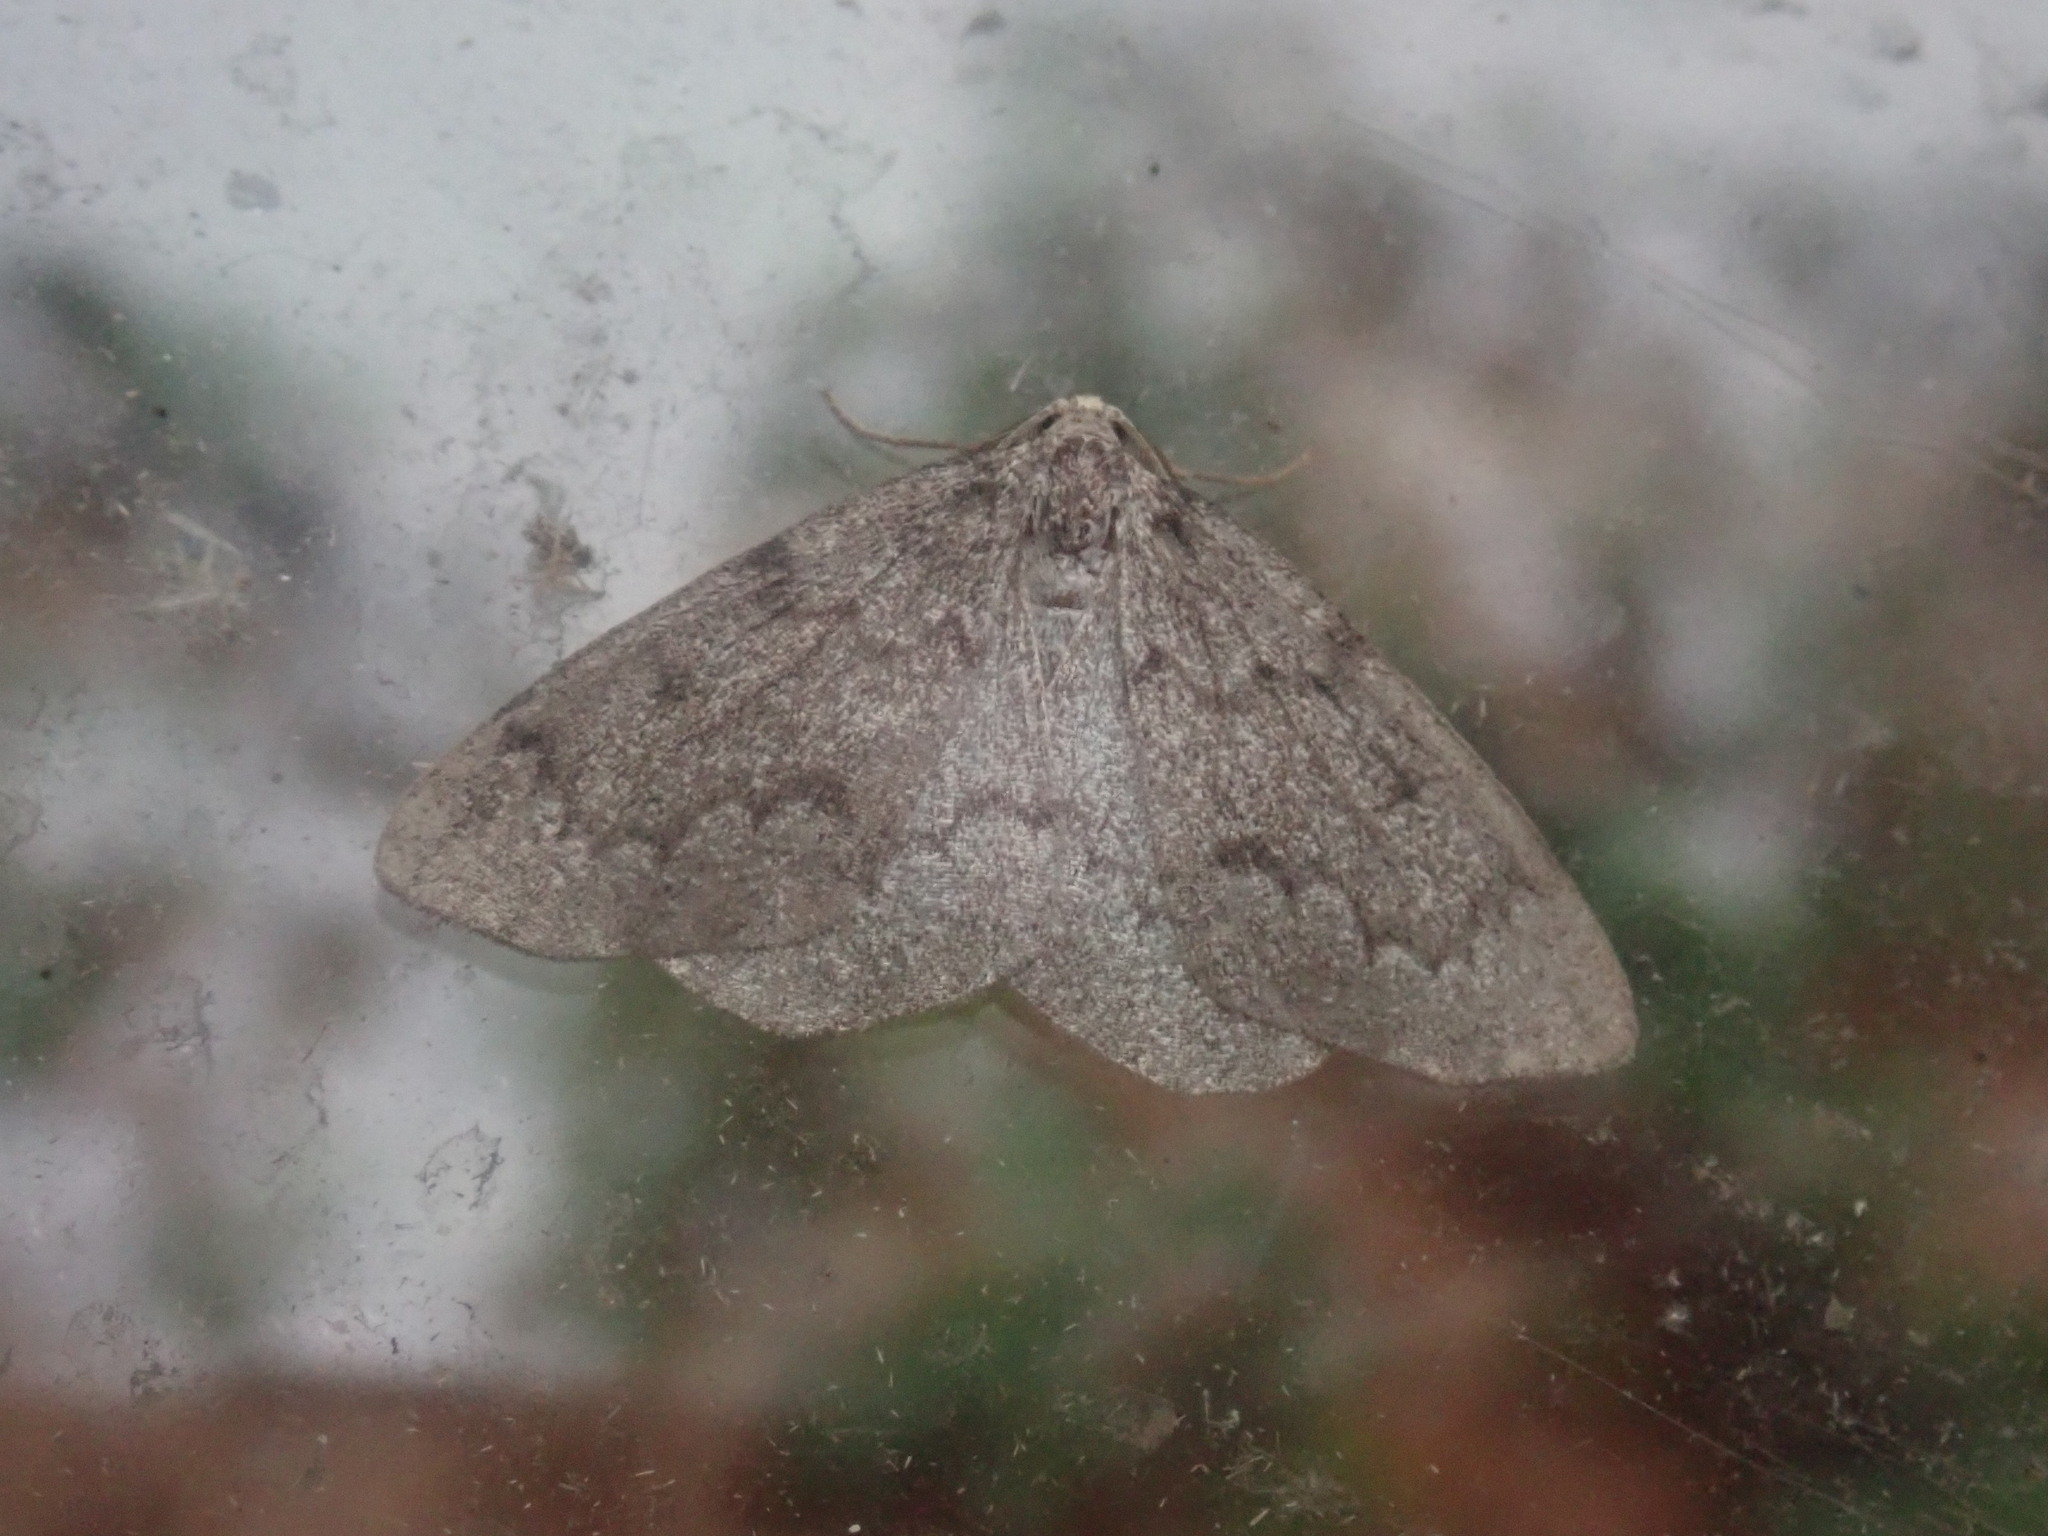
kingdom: Animalia
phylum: Arthropoda
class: Insecta
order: Lepidoptera
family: Geometridae
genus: Nepytia
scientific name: Nepytia canosaria
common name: False hemlock looper
